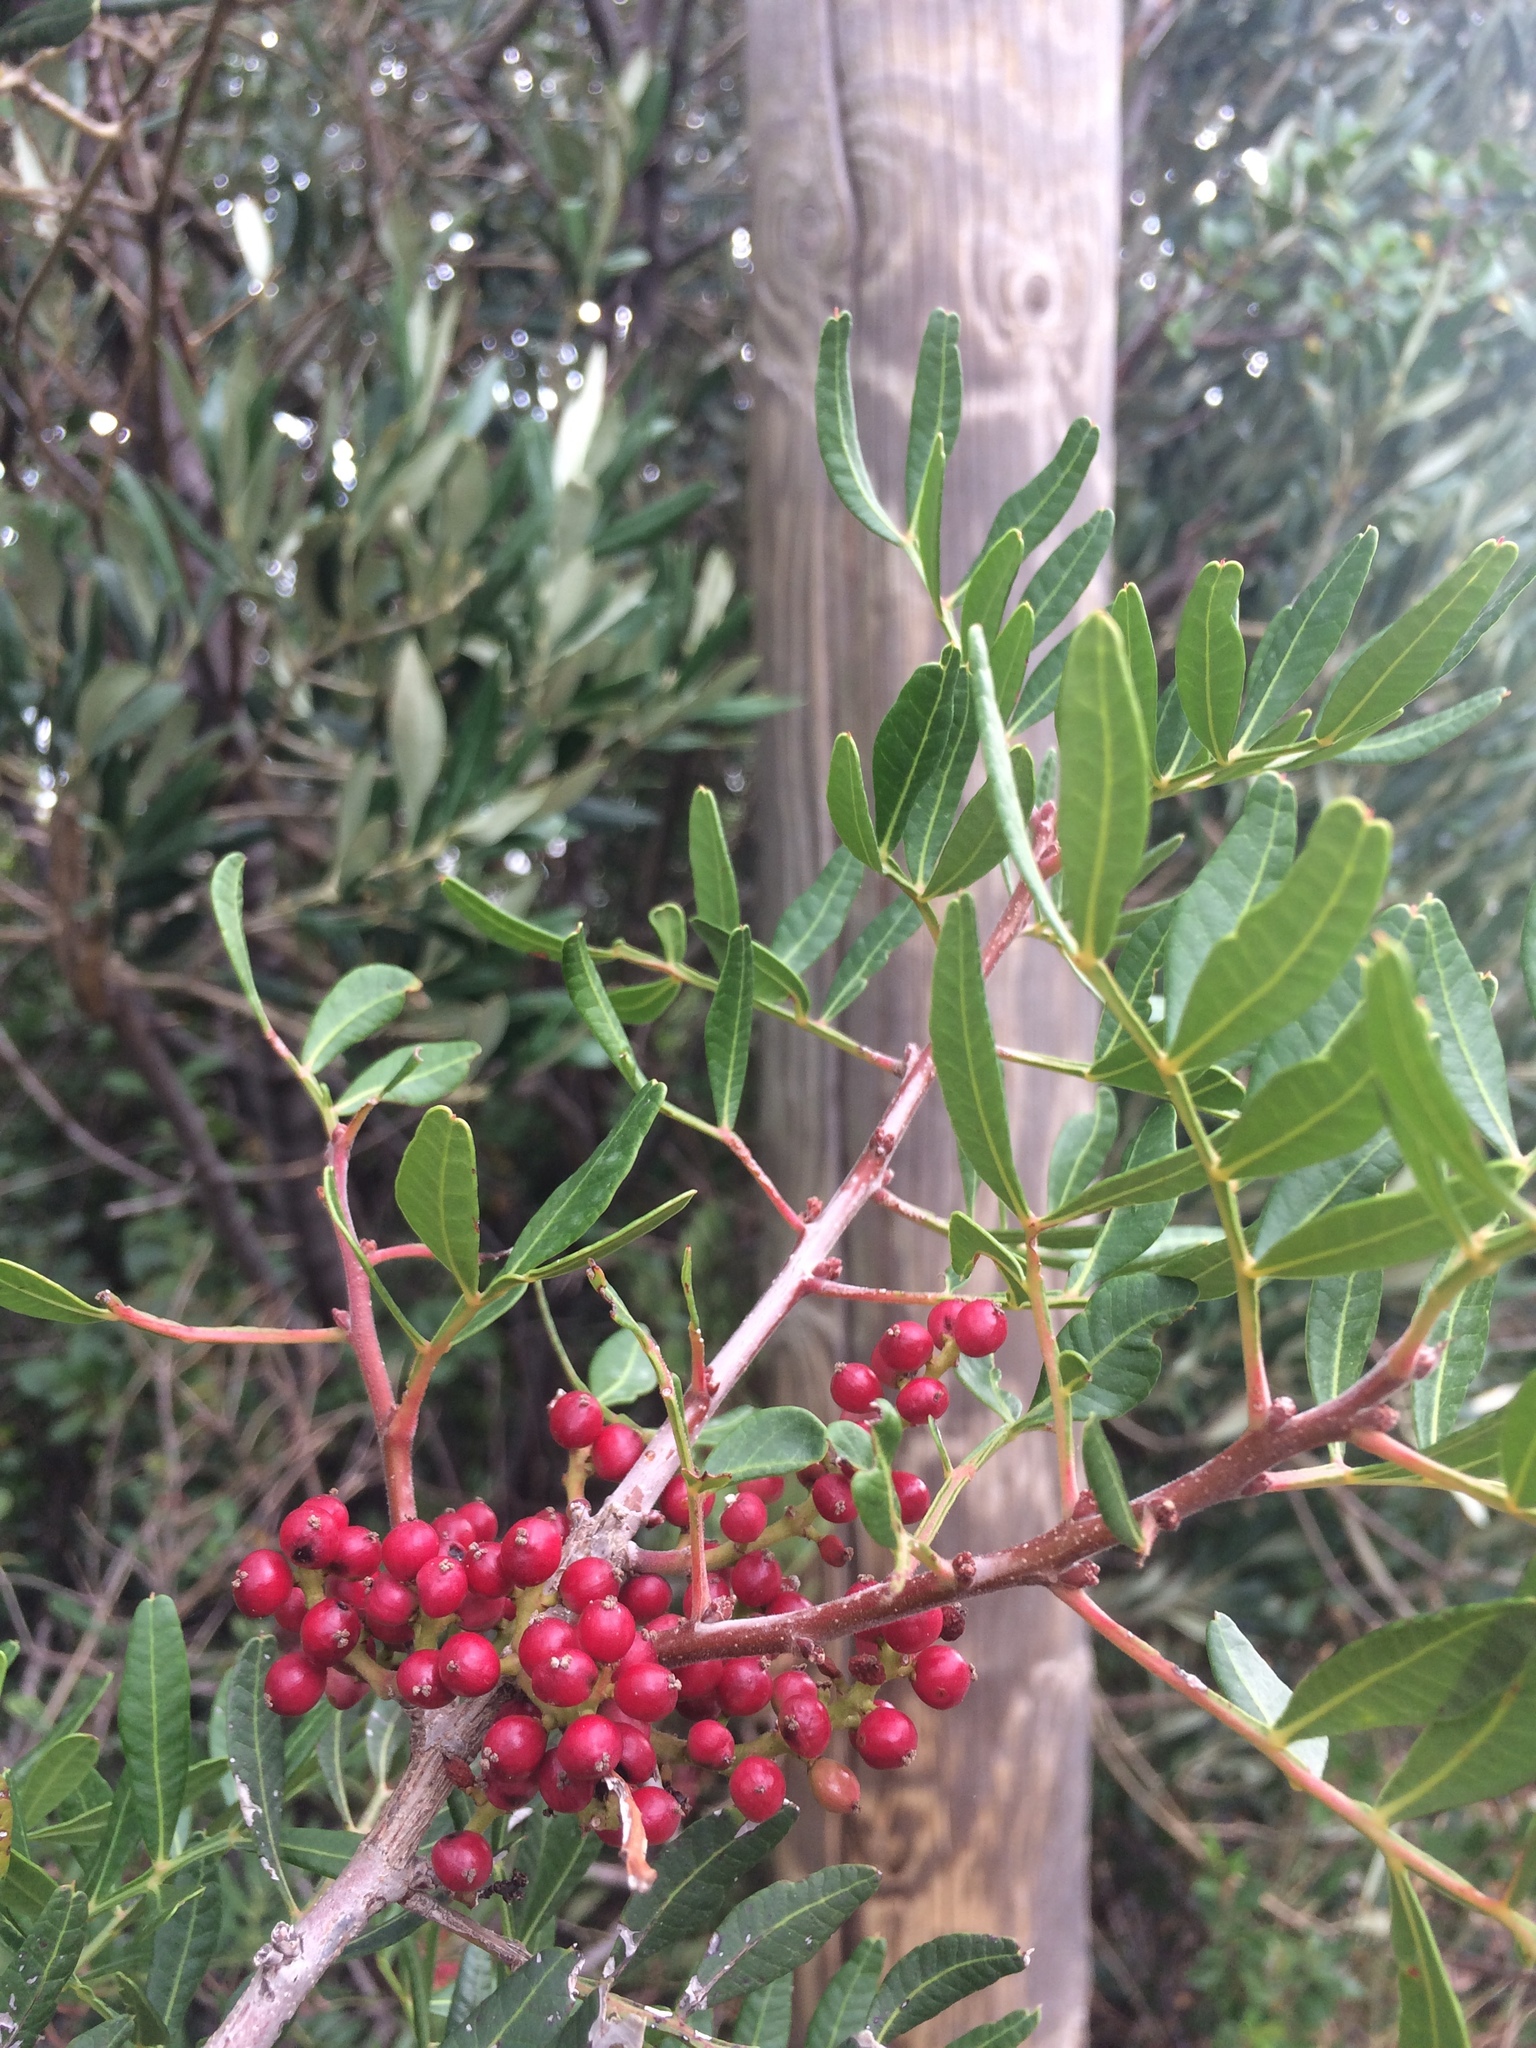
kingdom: Plantae
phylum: Tracheophyta
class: Magnoliopsida
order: Sapindales
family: Anacardiaceae
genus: Pistacia
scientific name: Pistacia lentiscus
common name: Lentisk
